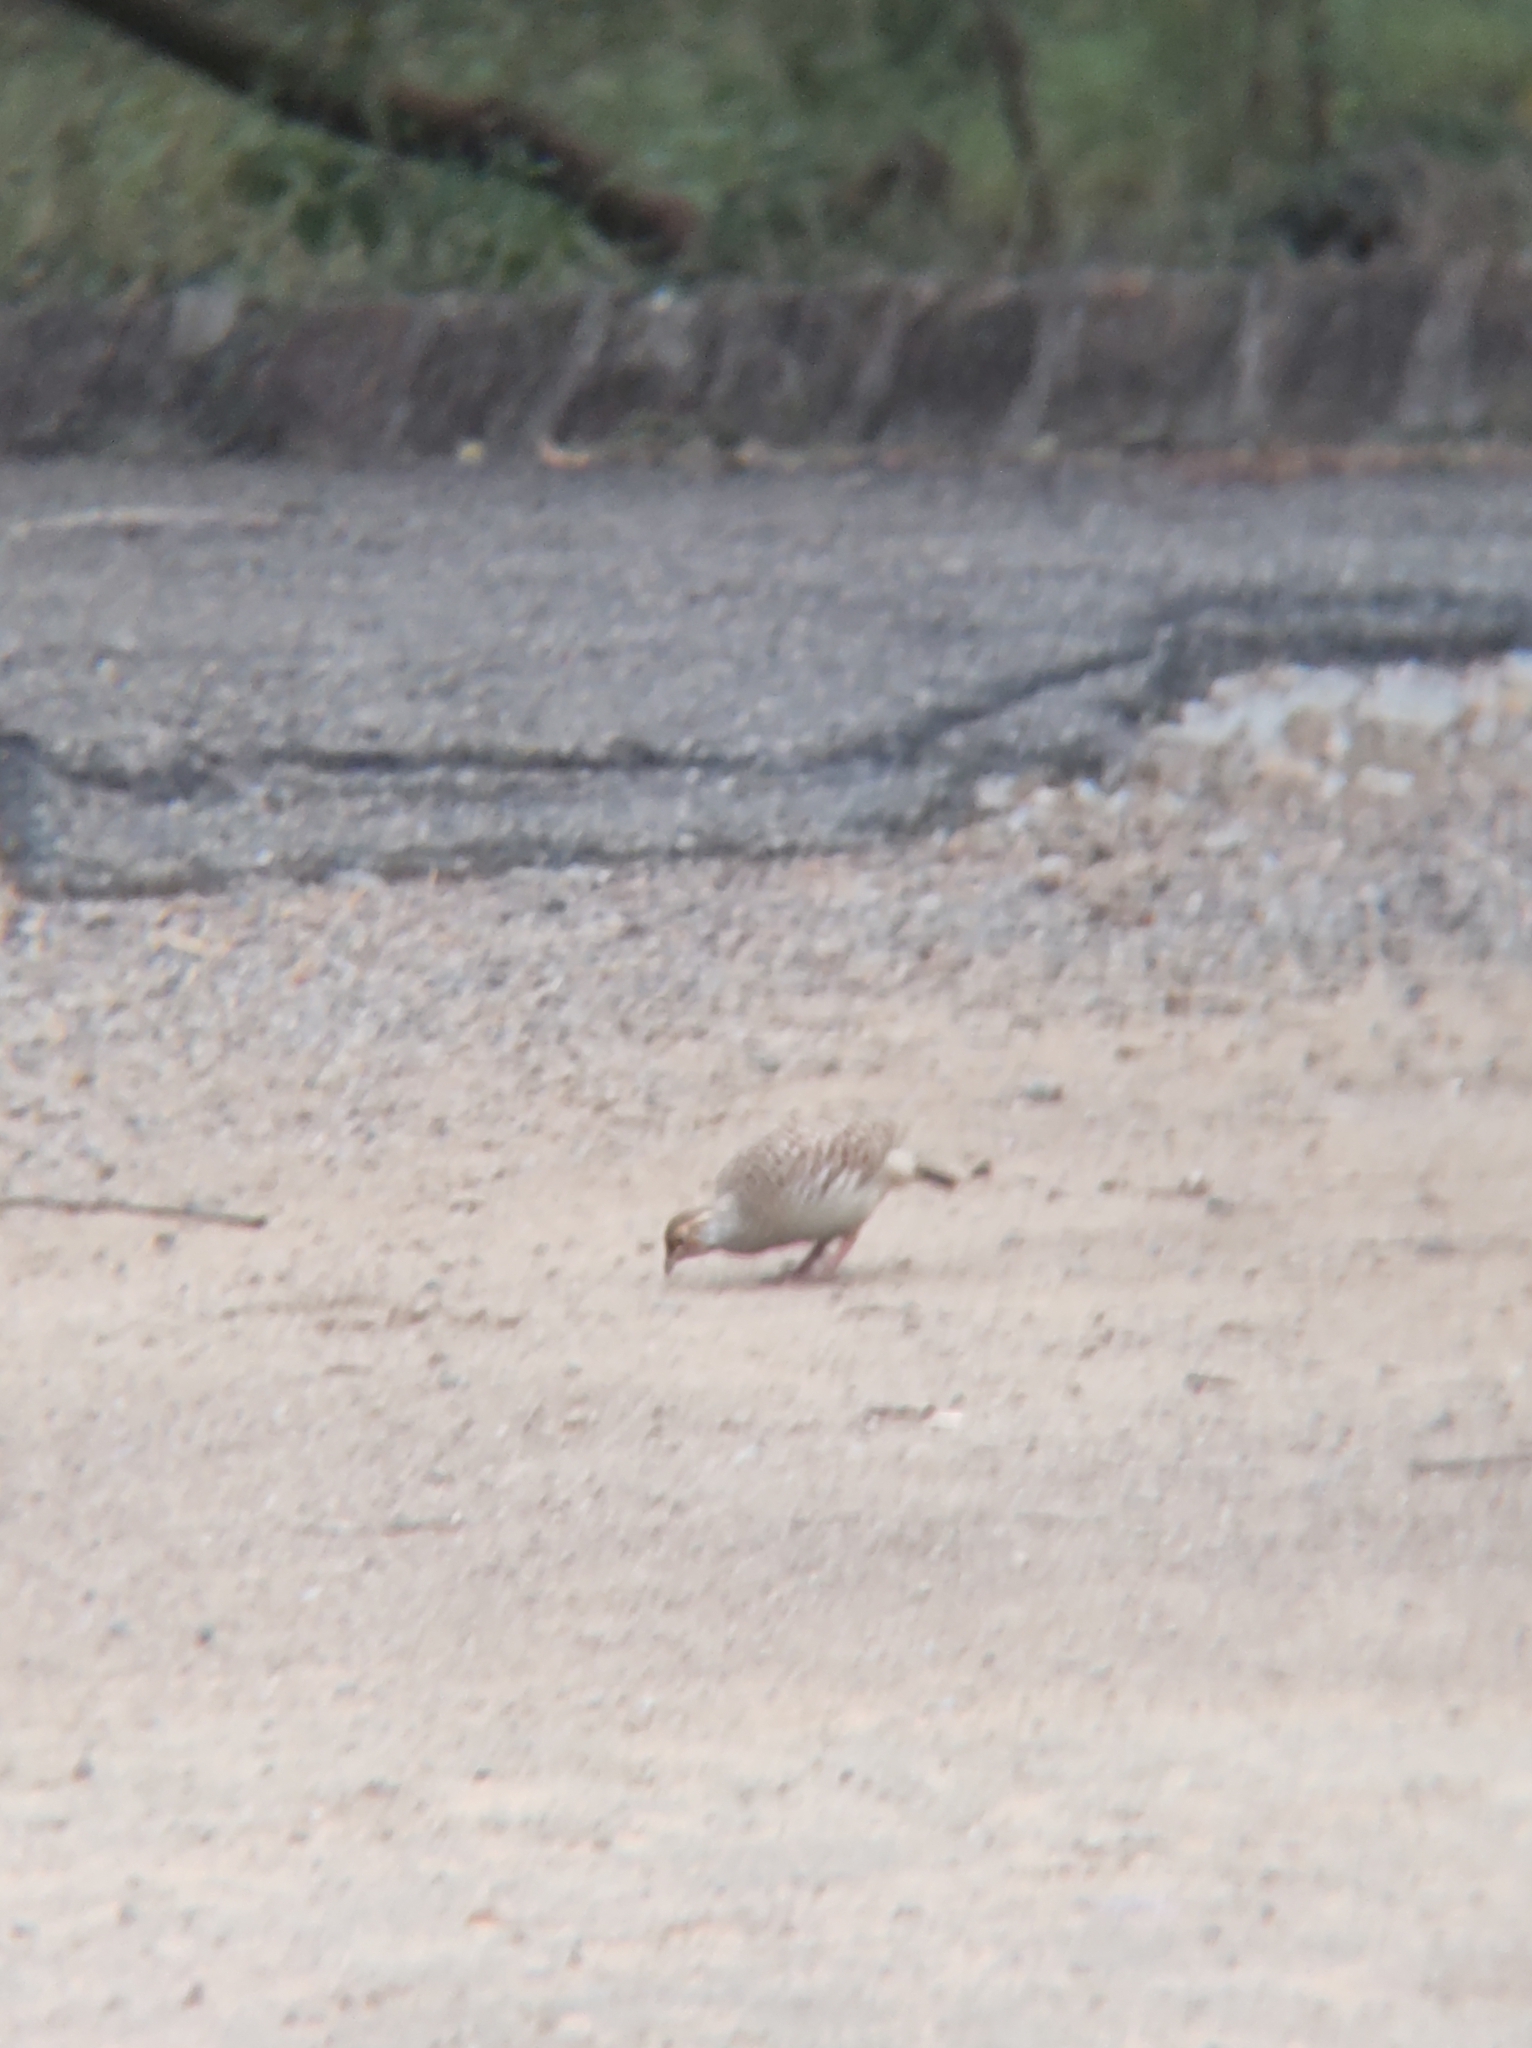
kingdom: Animalia
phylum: Chordata
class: Aves
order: Galliformes
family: Phasianidae
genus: Ortygornis
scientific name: Ortygornis pondicerianus
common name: Grey francolin
